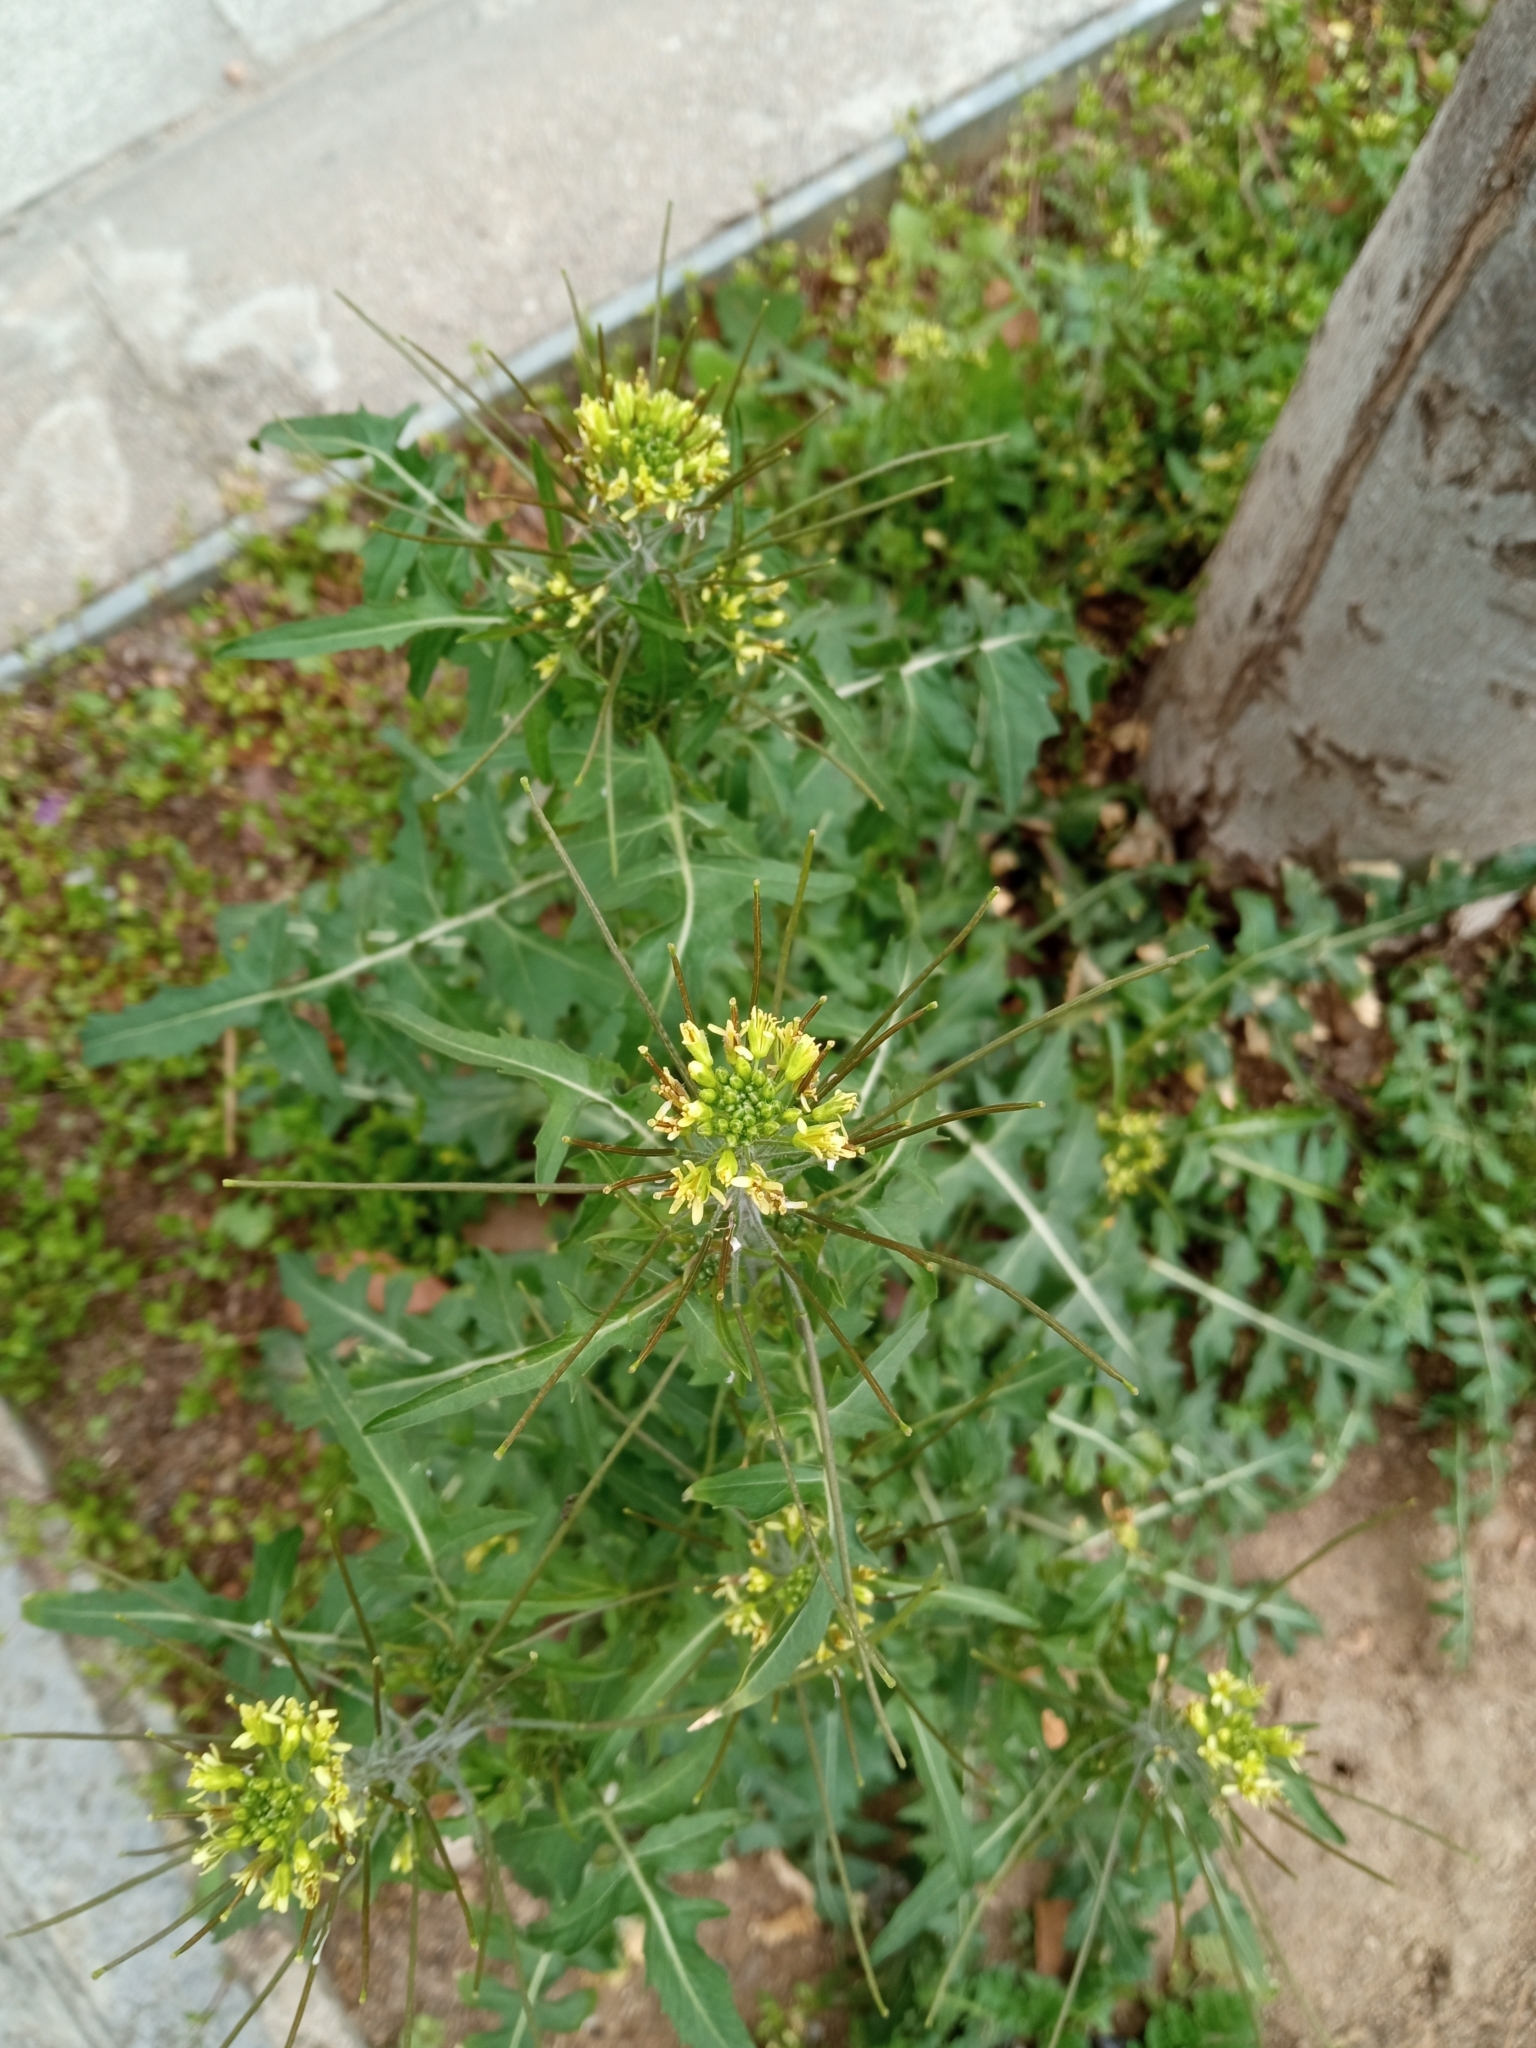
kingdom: Plantae
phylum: Tracheophyta
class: Magnoliopsida
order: Brassicales
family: Brassicaceae
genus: Sisymbrium
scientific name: Sisymbrium irio
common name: London rocket
